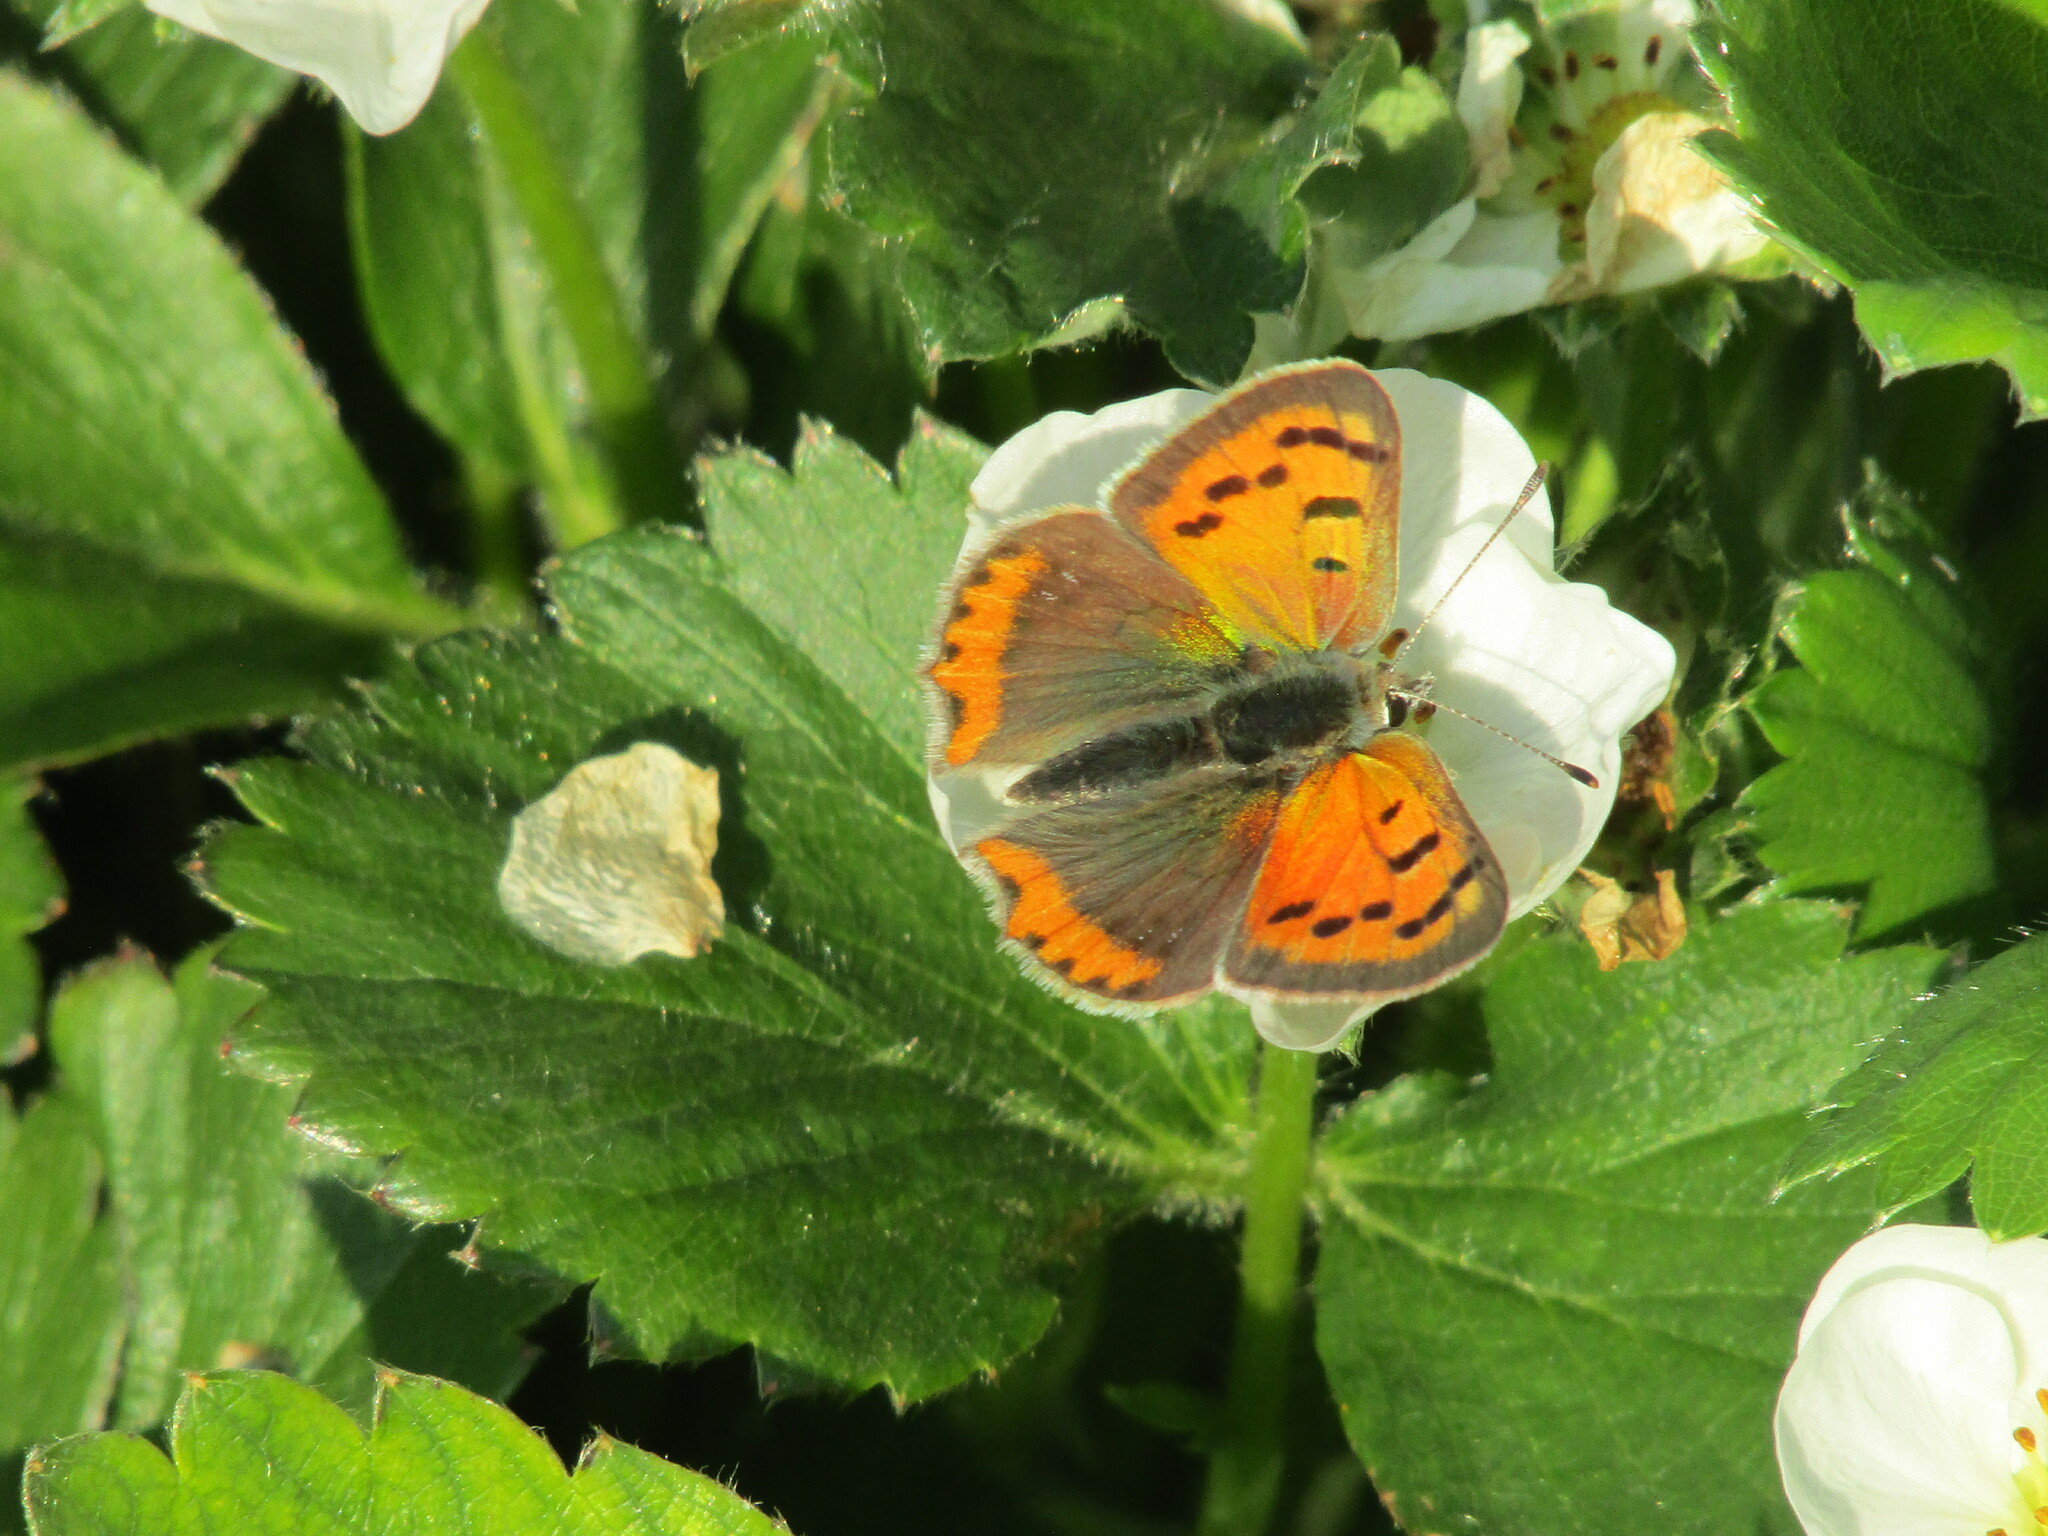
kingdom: Animalia
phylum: Arthropoda
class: Insecta
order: Lepidoptera
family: Lycaenidae
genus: Lycaena
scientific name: Lycaena phlaeas
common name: Small copper
